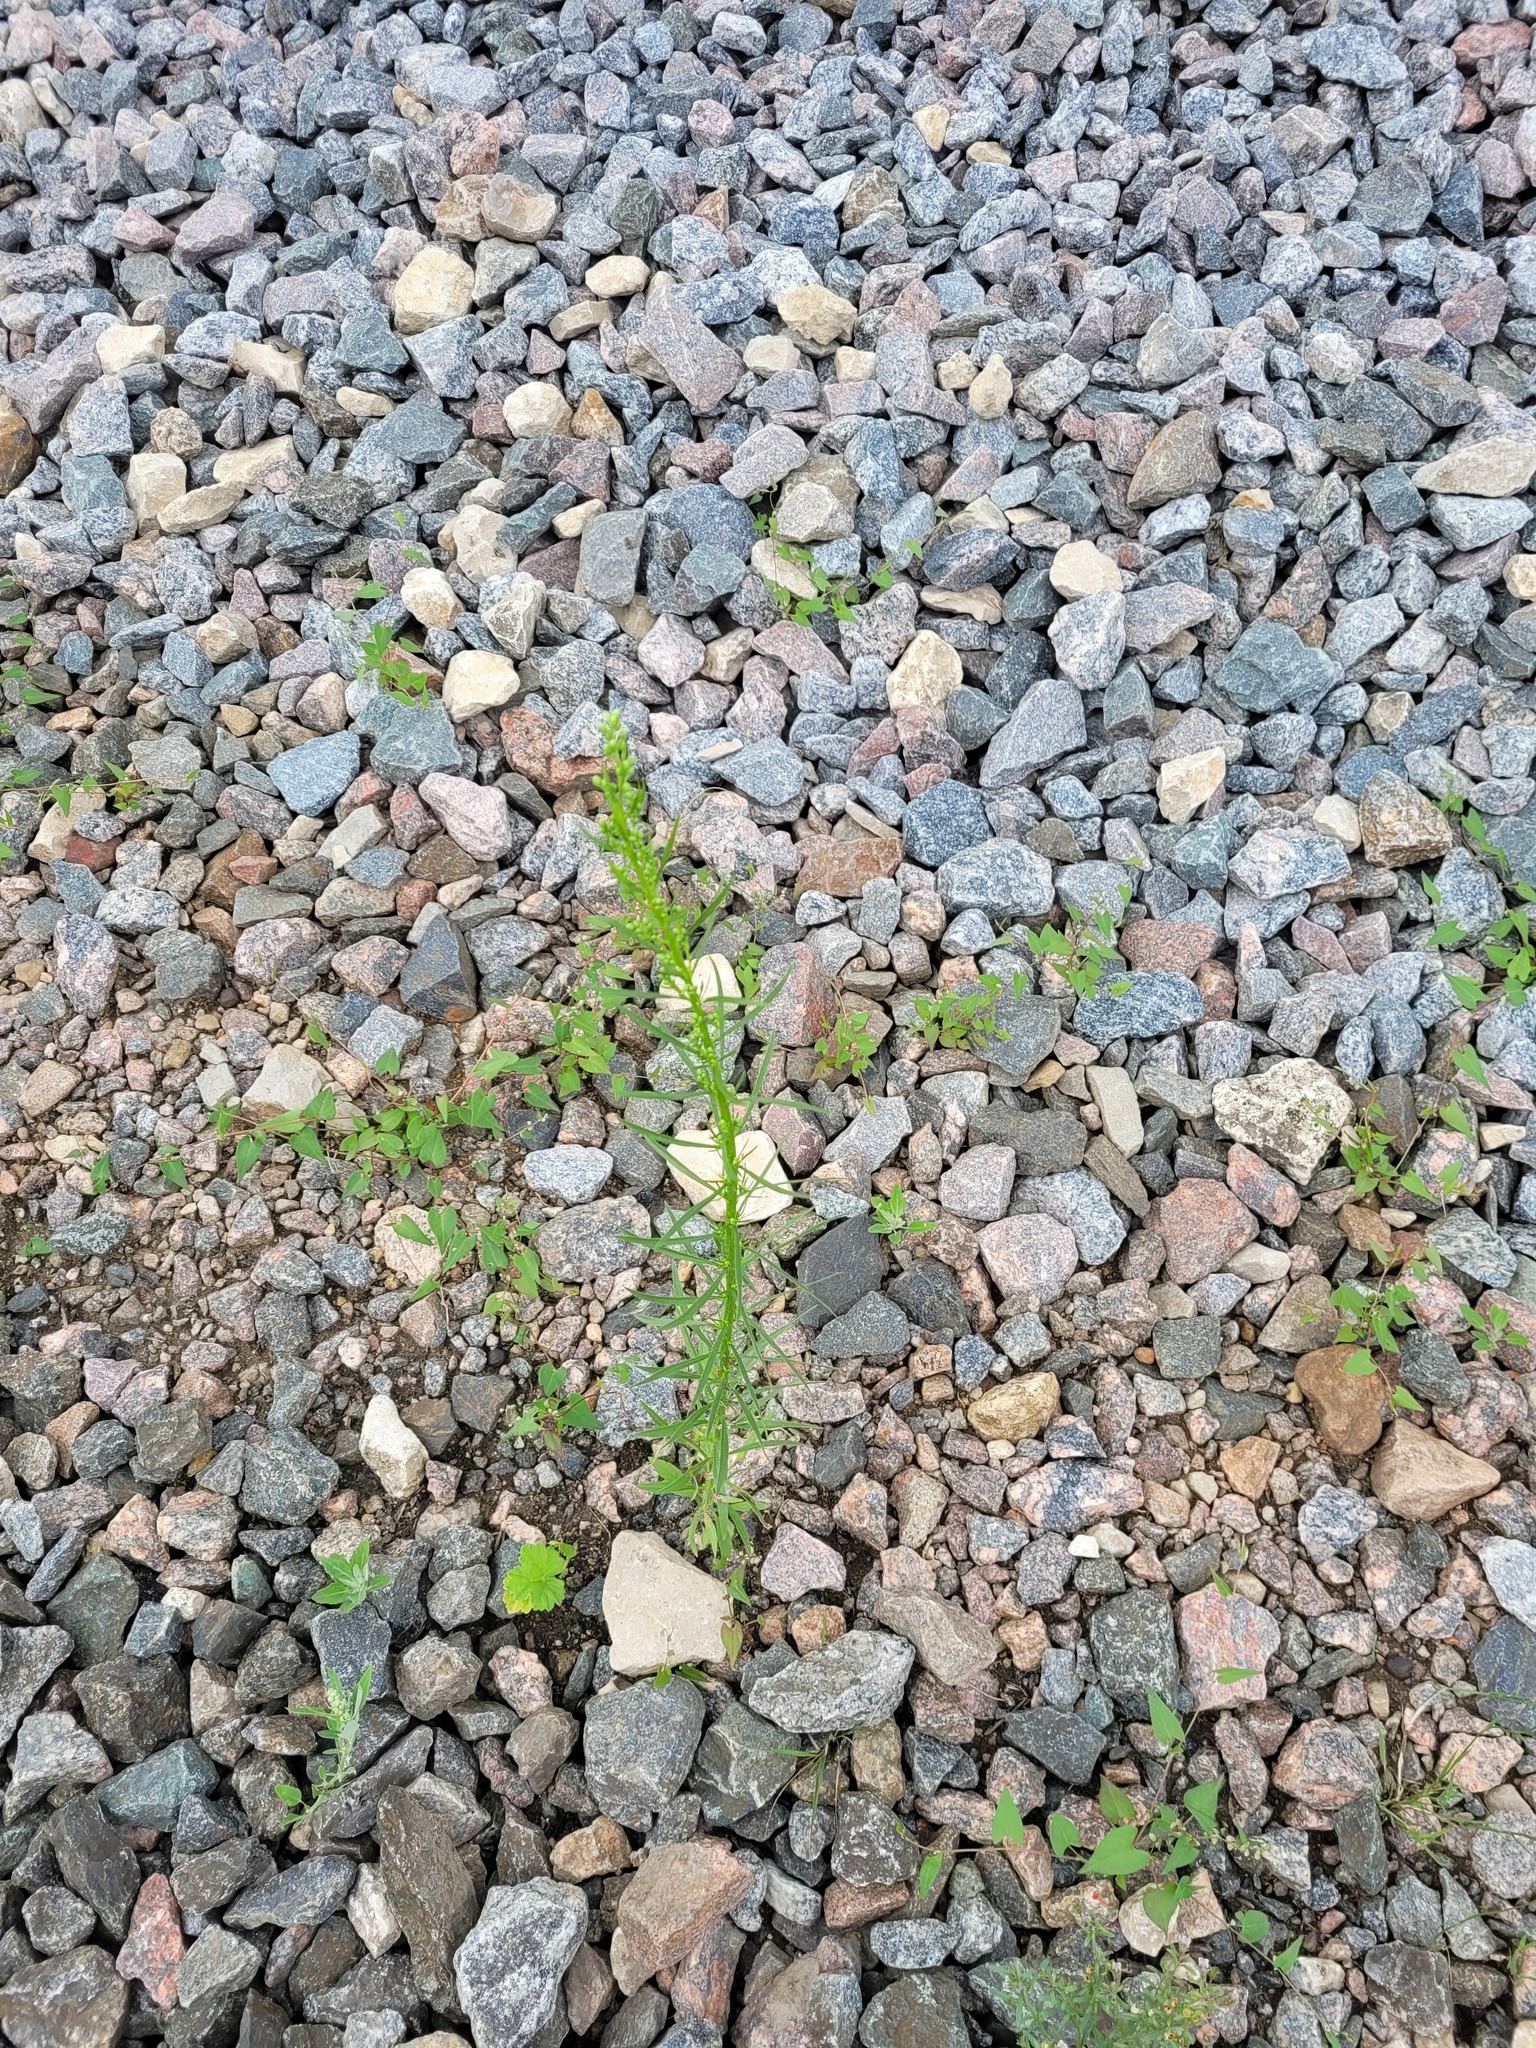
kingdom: Plantae
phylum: Tracheophyta
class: Magnoliopsida
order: Asterales
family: Asteraceae
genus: Erigeron
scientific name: Erigeron canadensis
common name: Canadian fleabane
